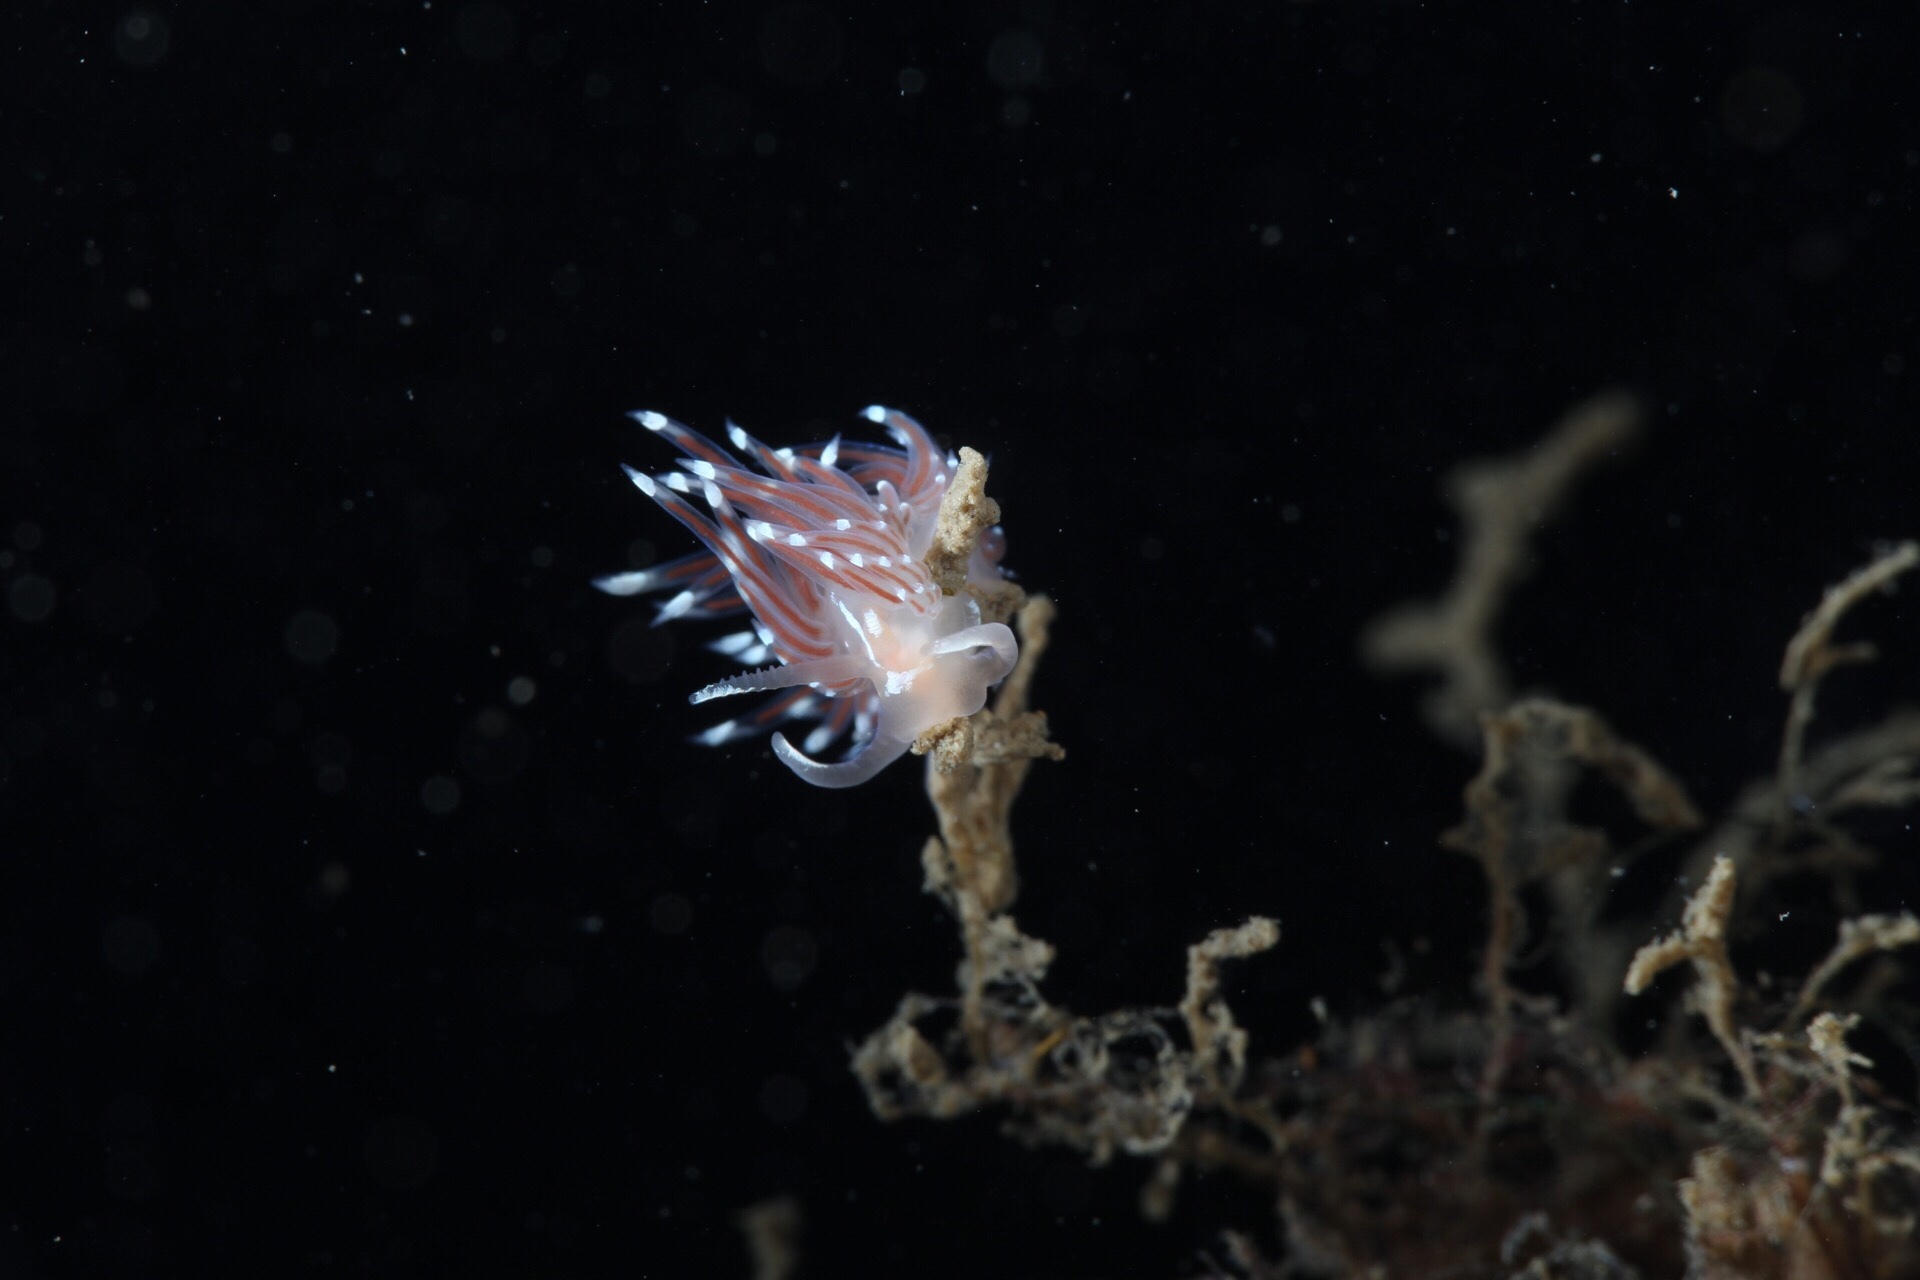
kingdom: Animalia
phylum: Mollusca
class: Gastropoda
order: Nudibranchia
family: Facelinidae
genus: Facelina
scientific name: Facelina bostoniensis
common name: Boston facelina
